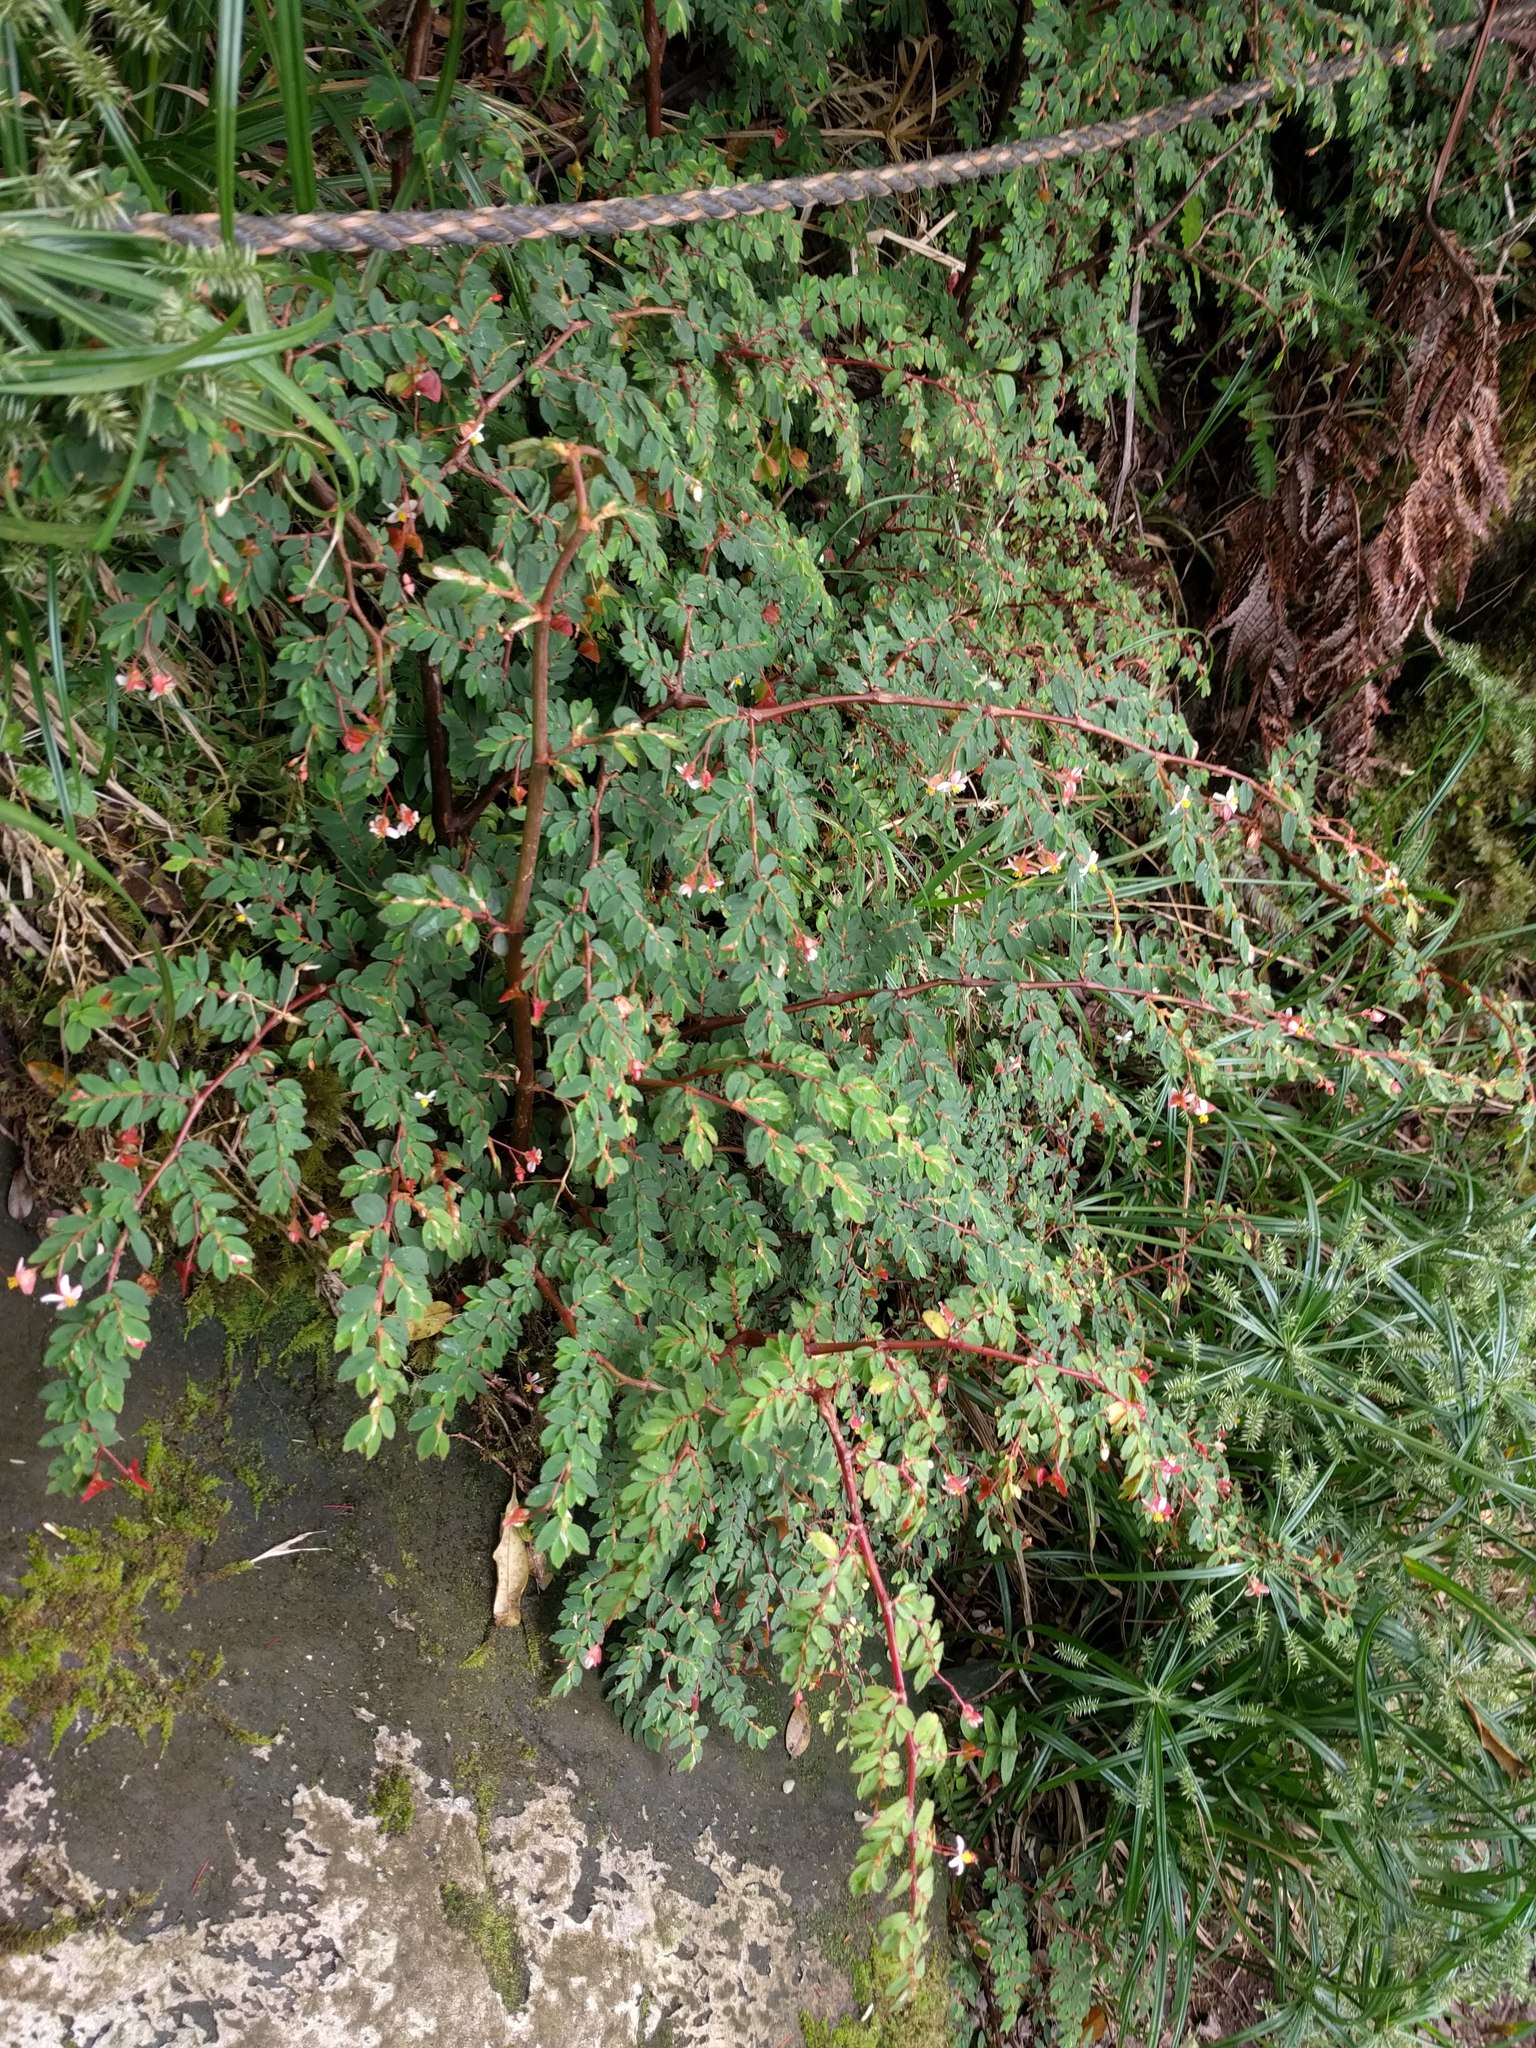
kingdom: Plantae
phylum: Tracheophyta
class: Magnoliopsida
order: Cucurbitales
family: Begoniaceae
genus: Begonia
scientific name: Begonia foliosa
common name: Fern begonia
